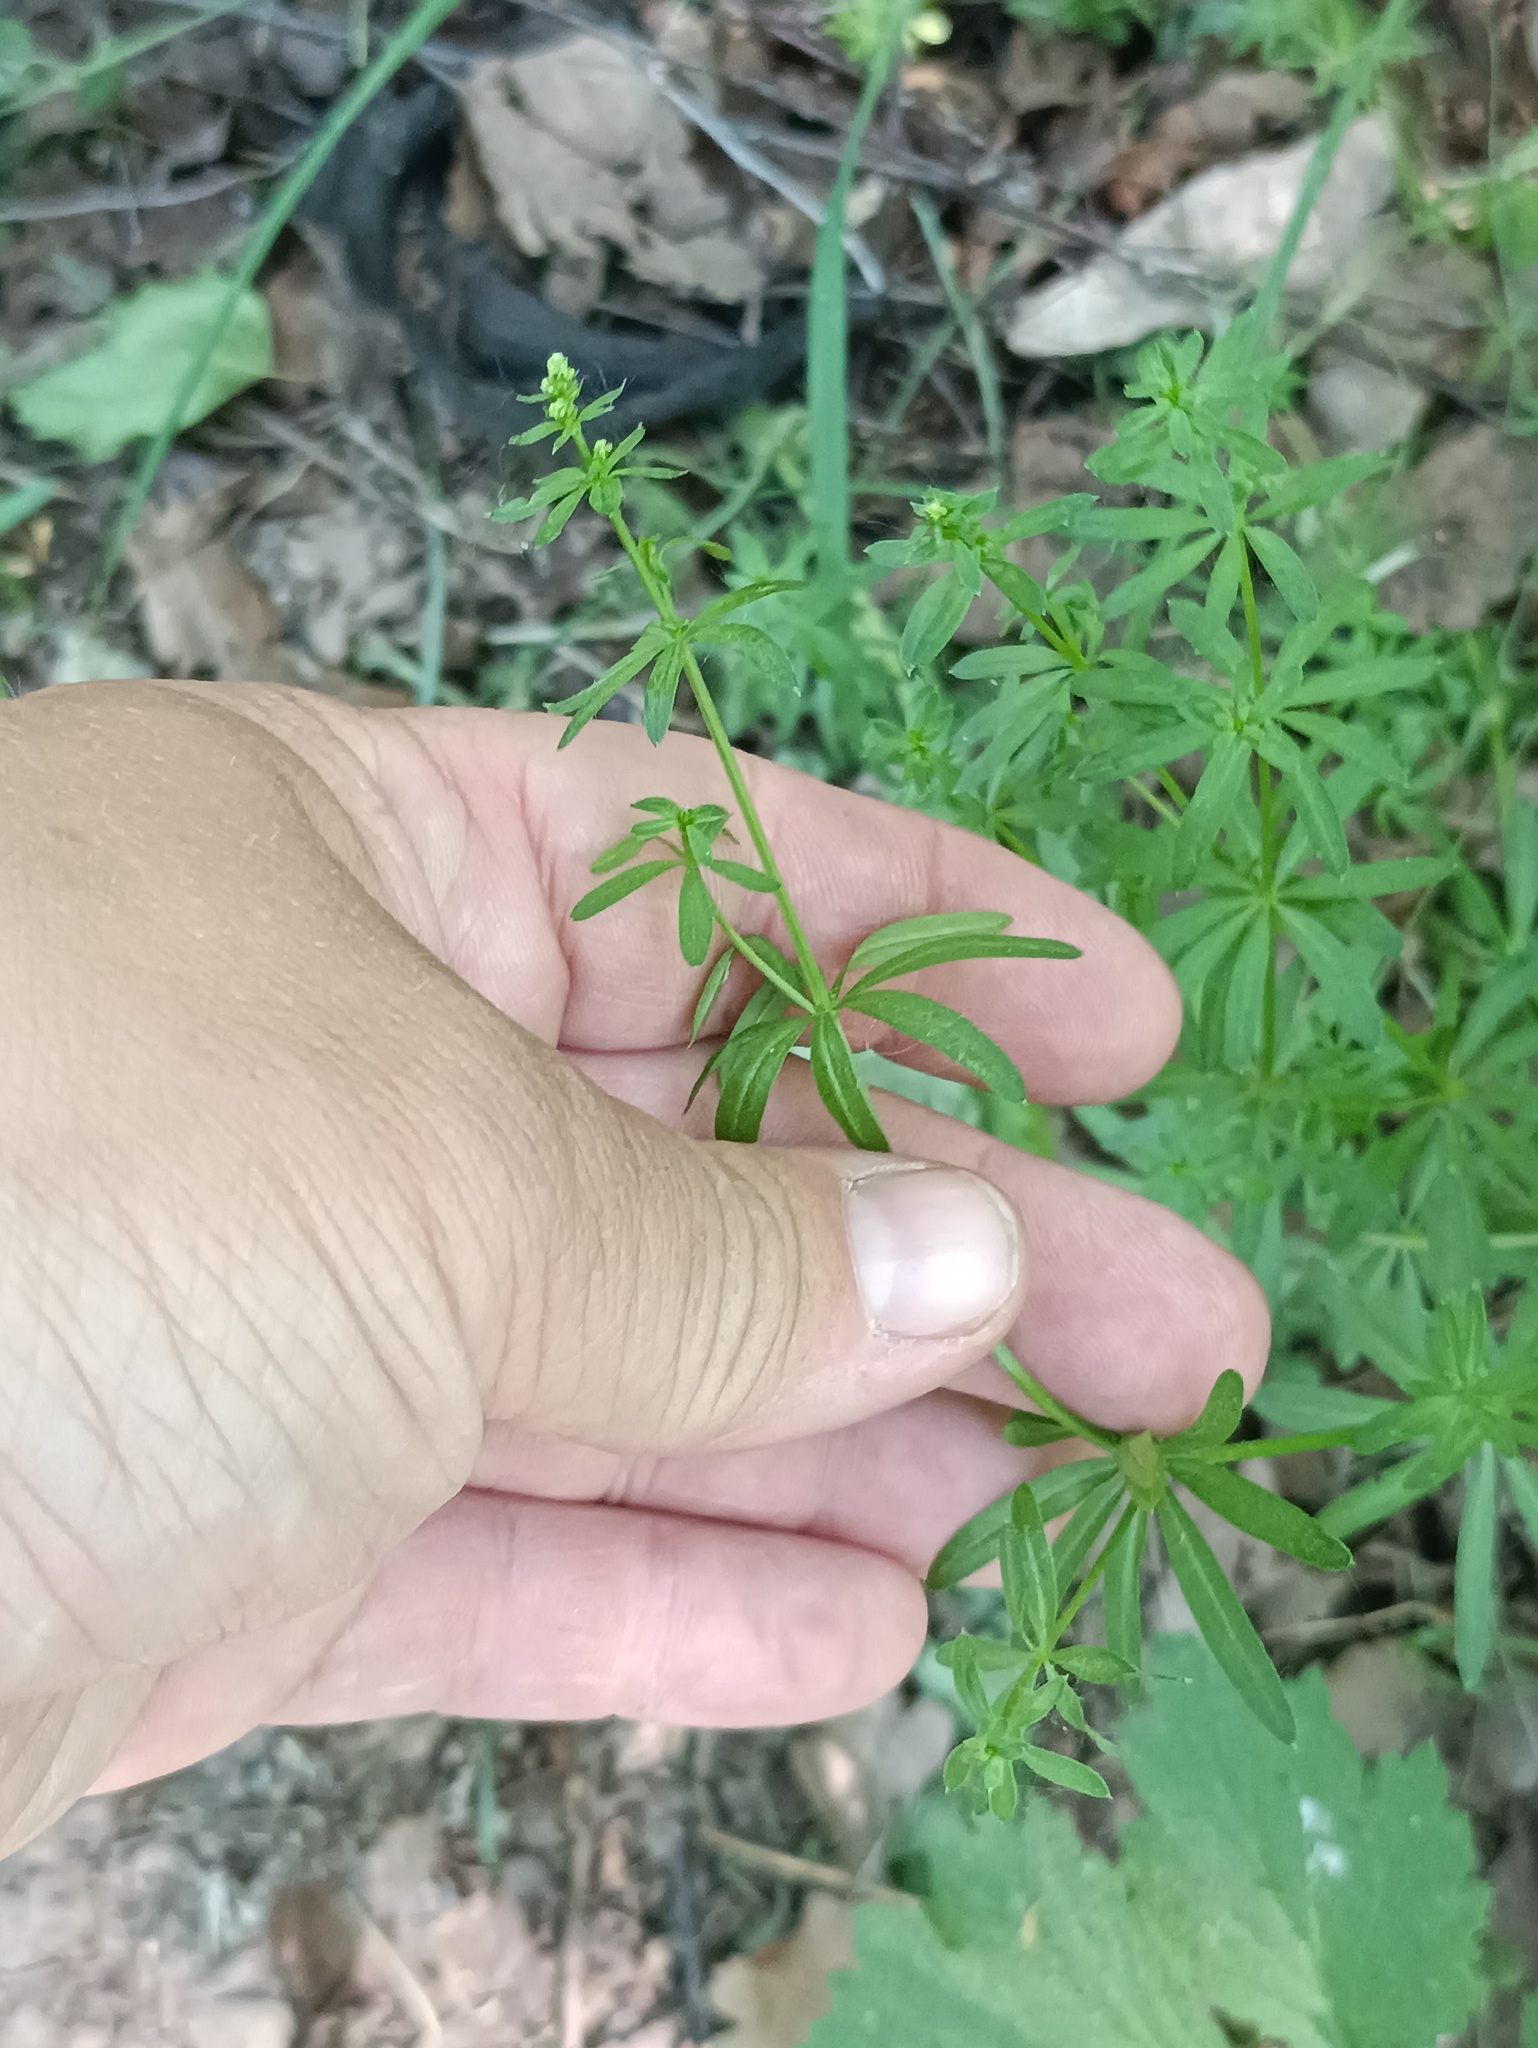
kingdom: Plantae
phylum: Tracheophyta
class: Magnoliopsida
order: Gentianales
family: Rubiaceae
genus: Galium
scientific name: Galium mollugo
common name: Hedge bedstraw
